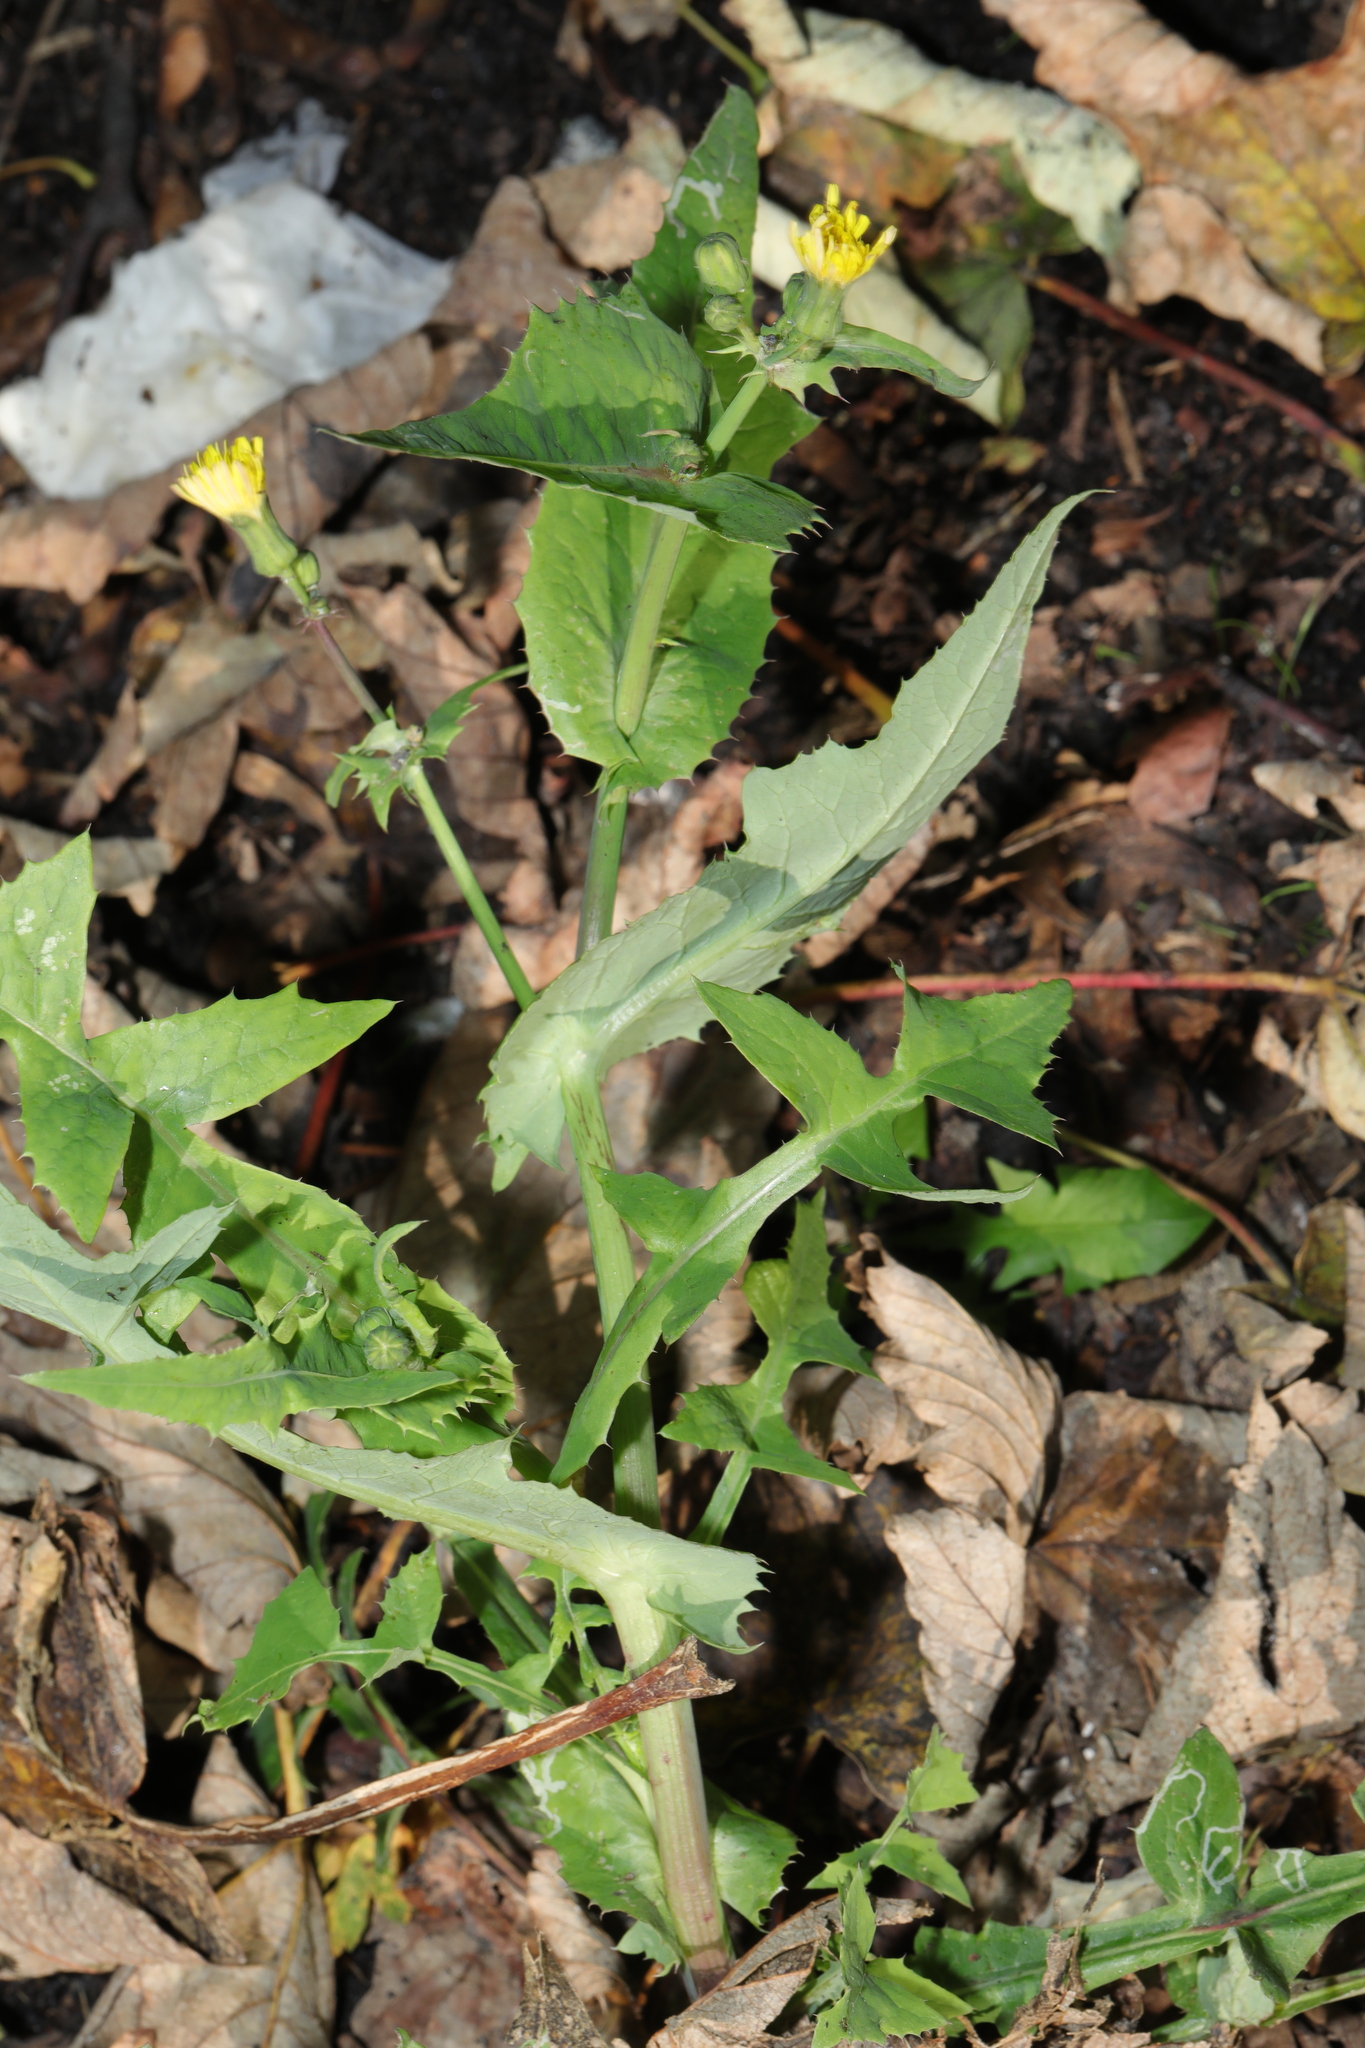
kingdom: Plantae
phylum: Tracheophyta
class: Magnoliopsida
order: Asterales
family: Asteraceae
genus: Sonchus
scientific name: Sonchus oleraceus
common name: Common sowthistle
